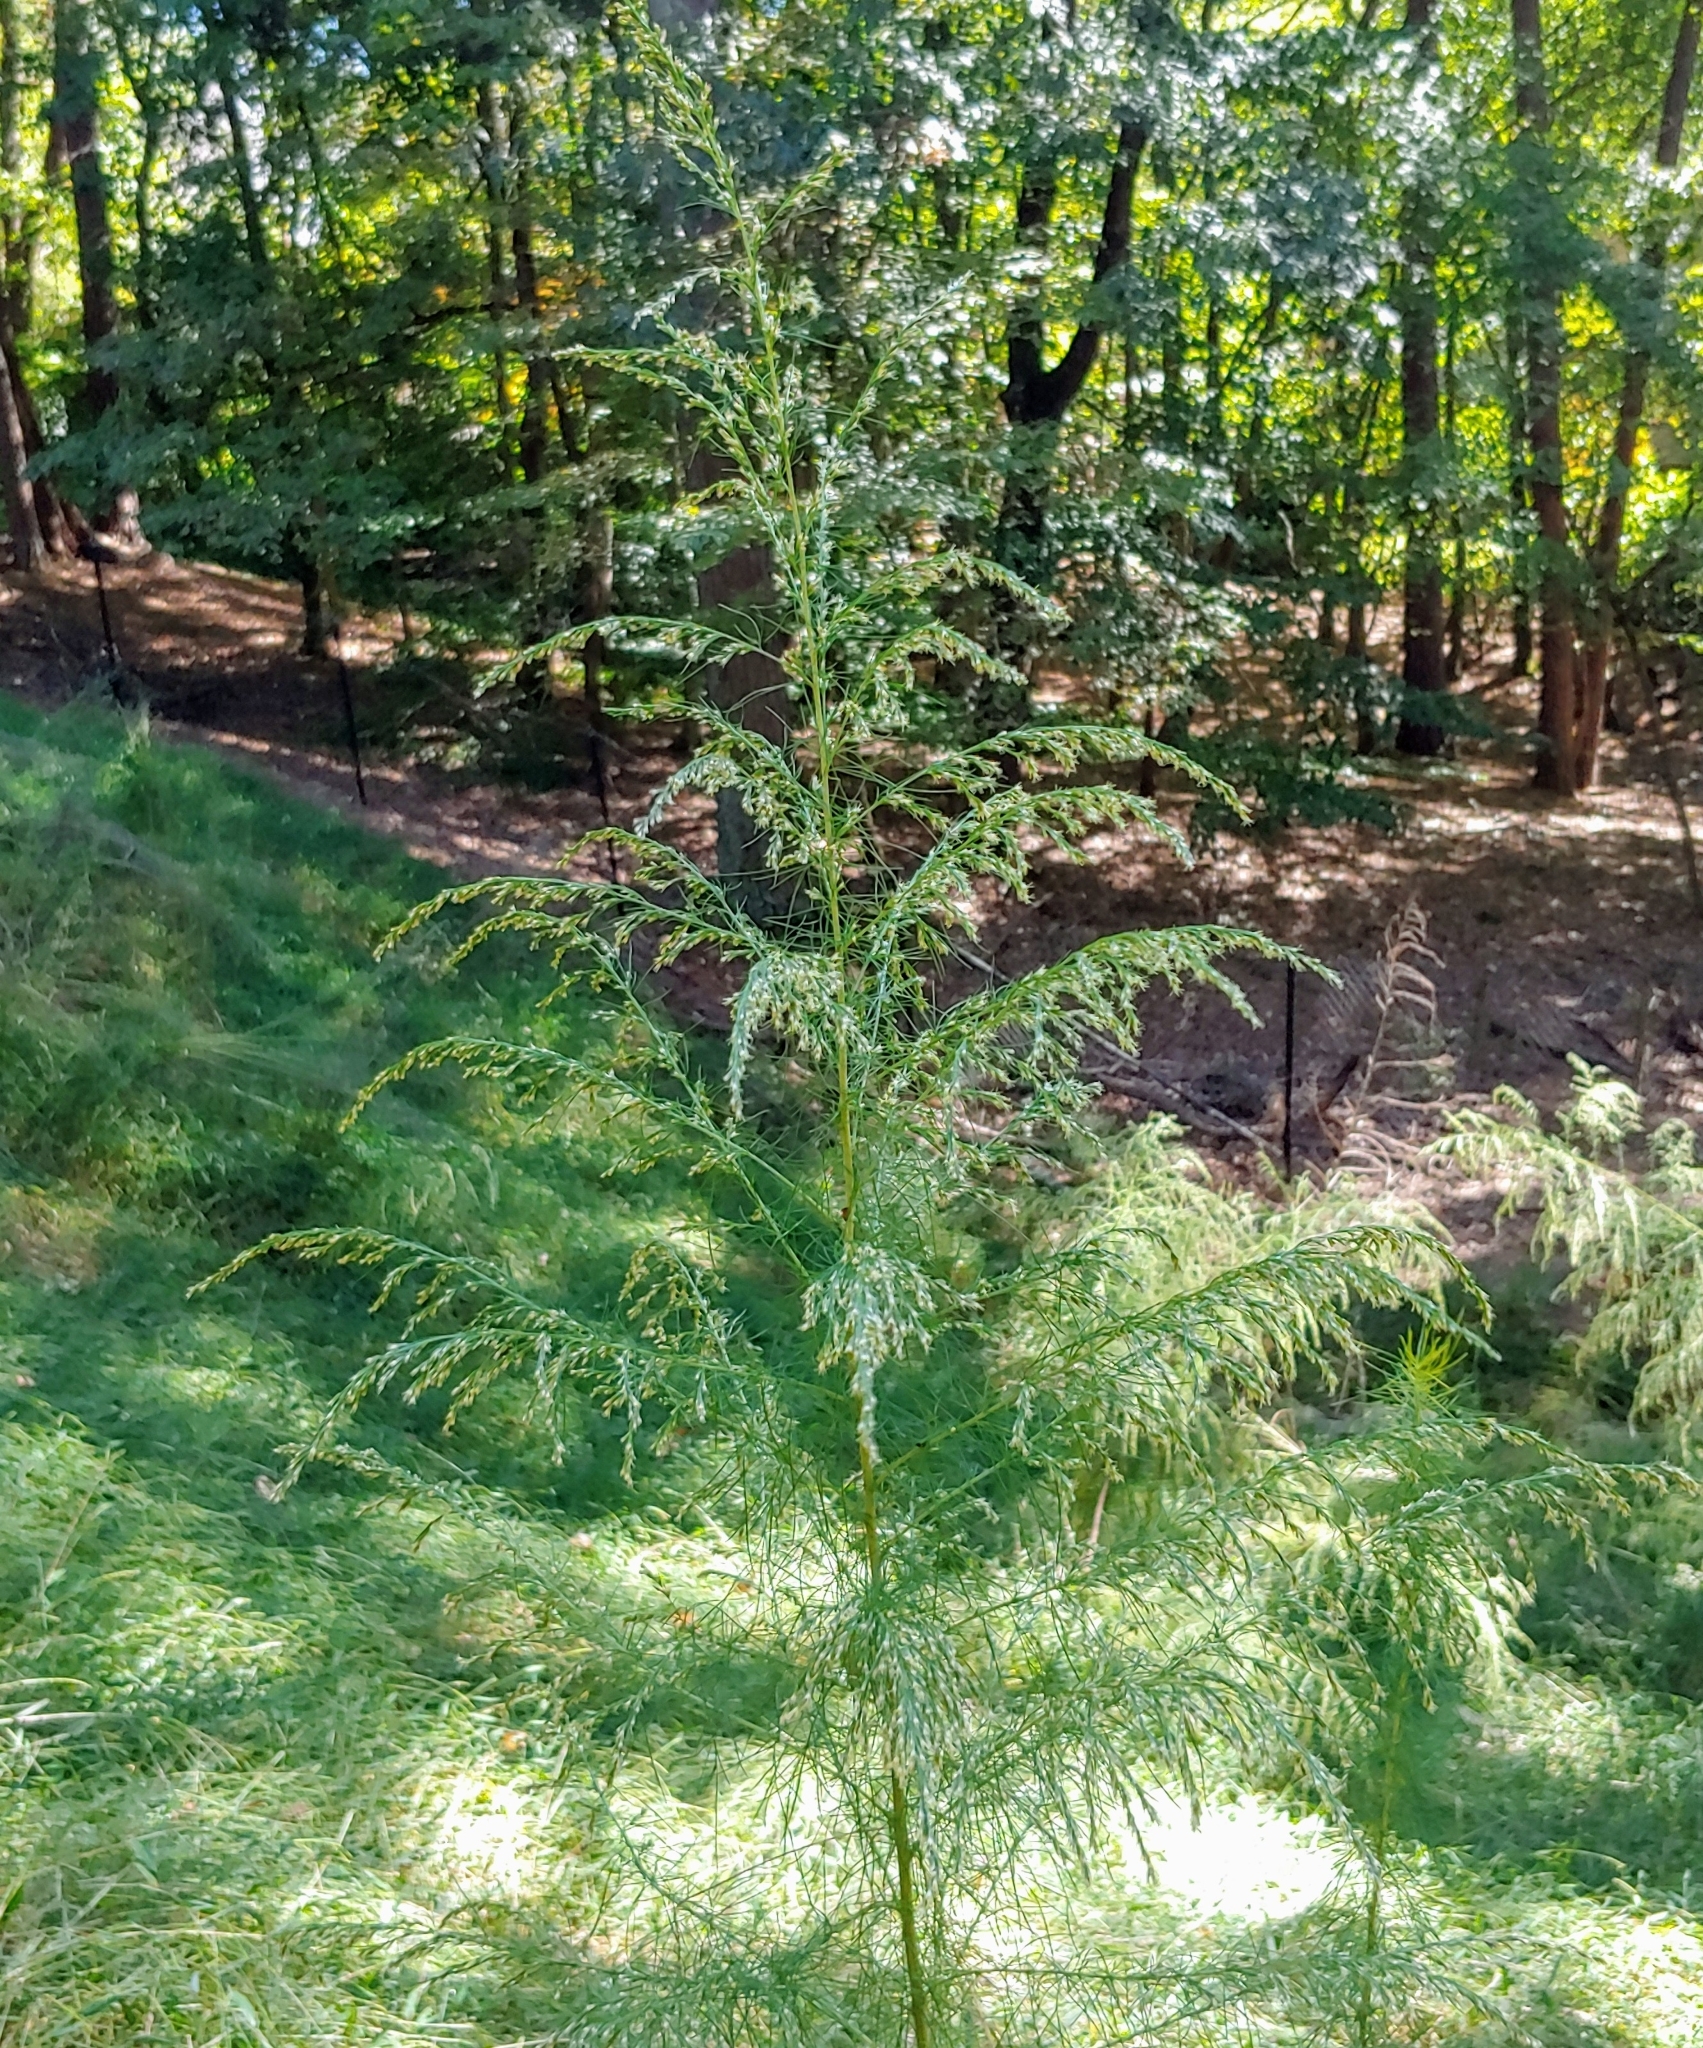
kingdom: Plantae
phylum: Tracheophyta
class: Magnoliopsida
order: Asterales
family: Asteraceae
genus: Eupatorium
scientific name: Eupatorium capillifolium
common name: Dog-fennel
